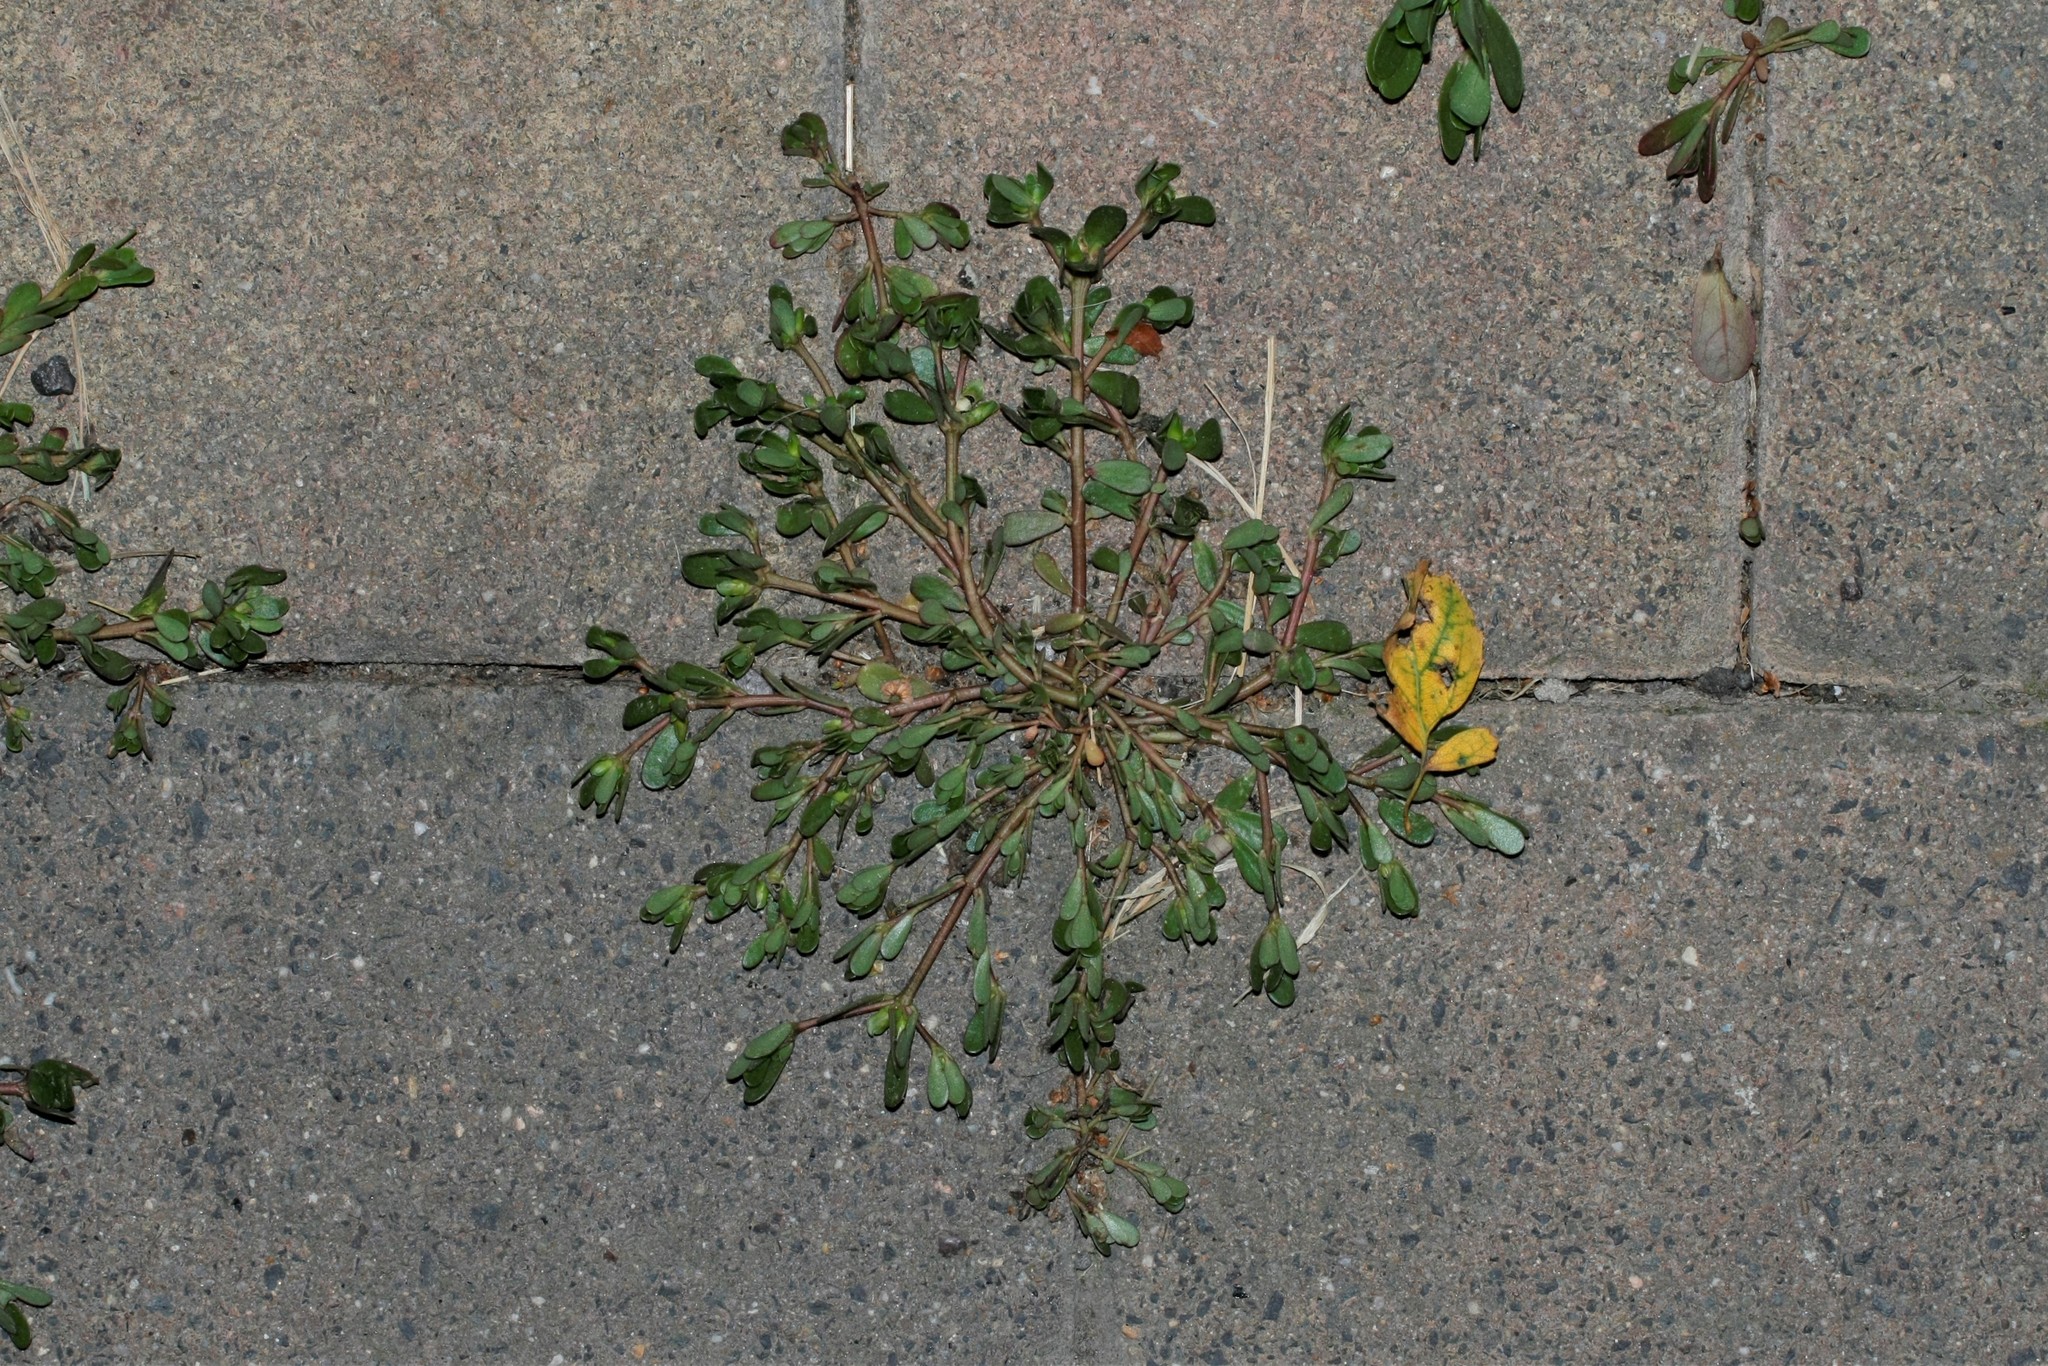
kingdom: Plantae
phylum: Tracheophyta
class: Magnoliopsida
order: Caryophyllales
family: Portulacaceae
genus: Portulaca
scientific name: Portulaca oleracea
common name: Common purslane
